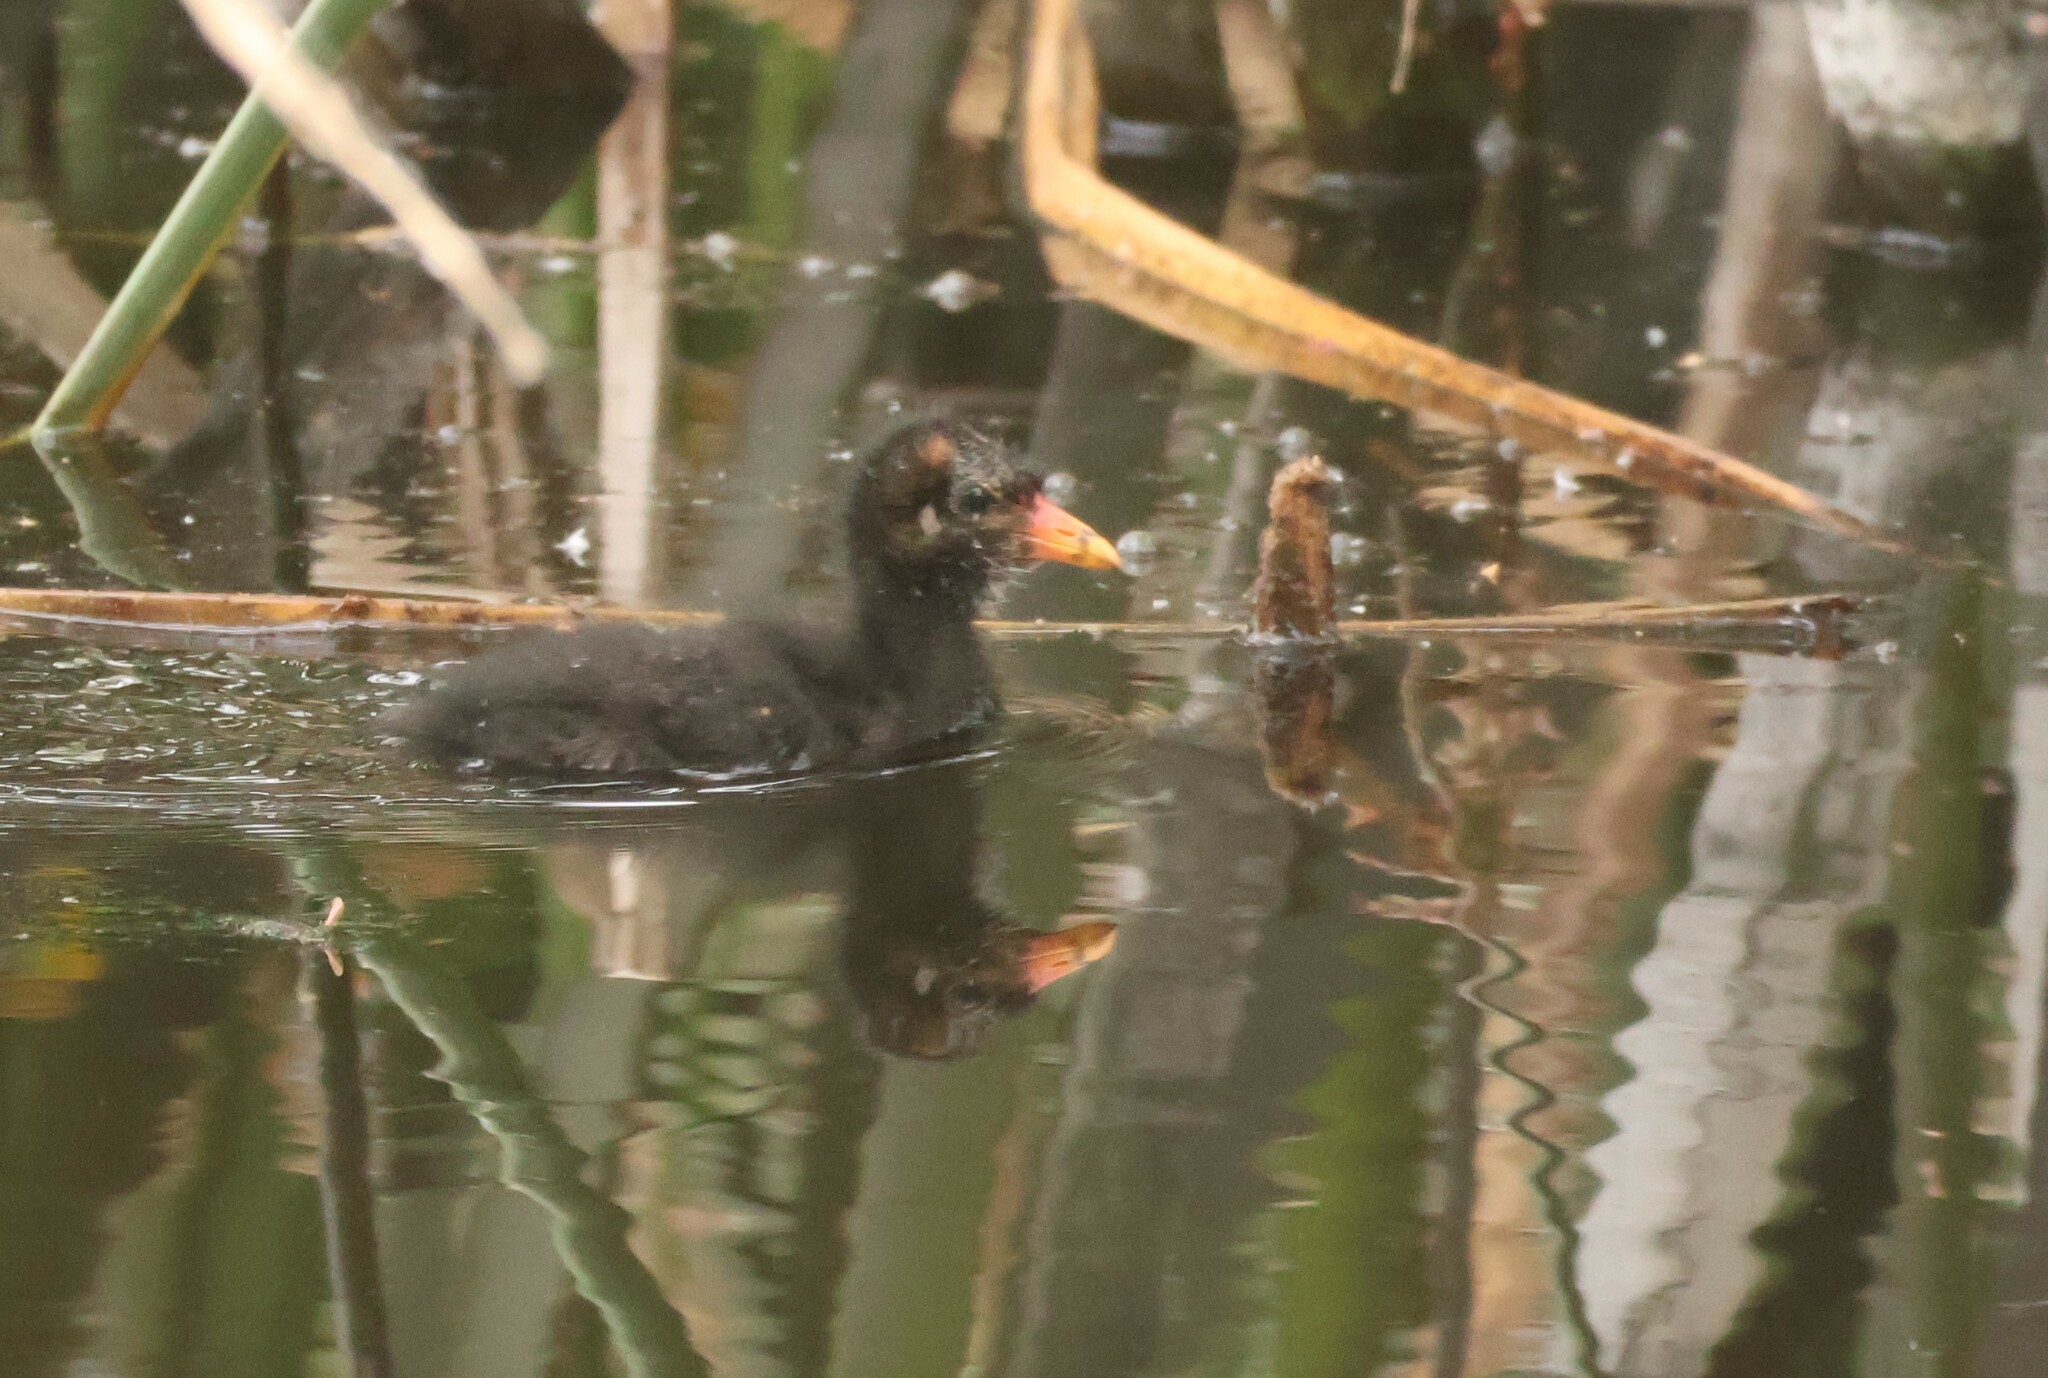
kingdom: Animalia
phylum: Chordata
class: Aves
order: Gruiformes
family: Rallidae
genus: Gallinula
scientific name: Gallinula chloropus
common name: Common moorhen
